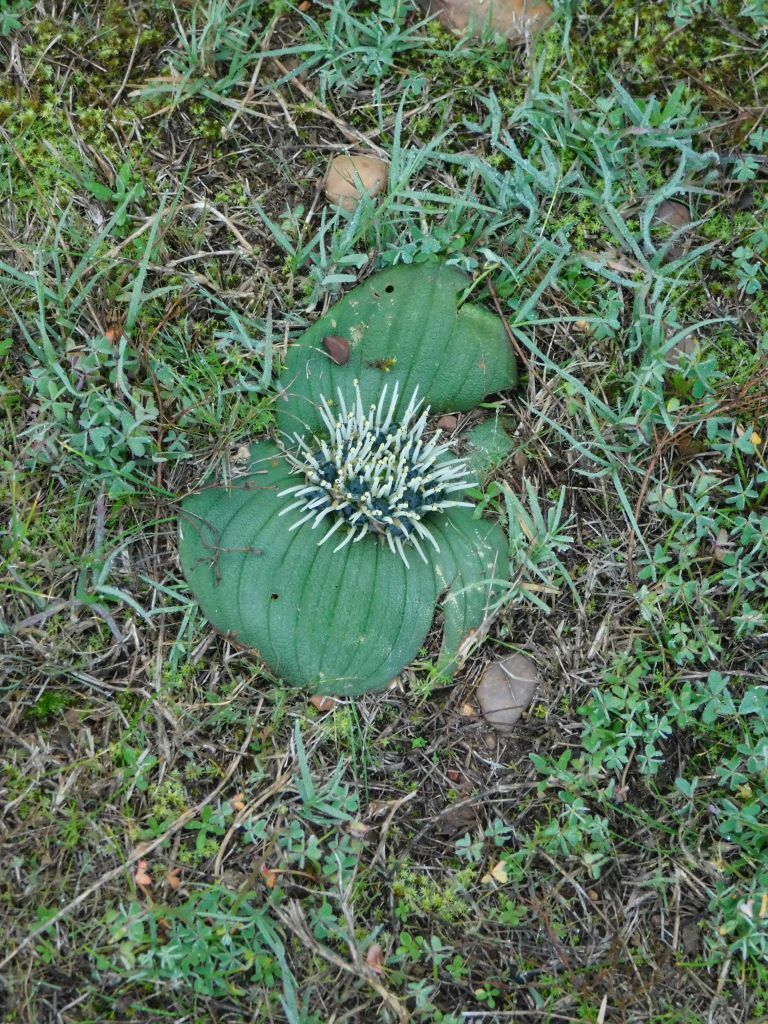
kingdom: Plantae
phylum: Tracheophyta
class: Liliopsida
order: Asparagales
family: Asparagaceae
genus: Massonia
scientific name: Massonia pustulata
